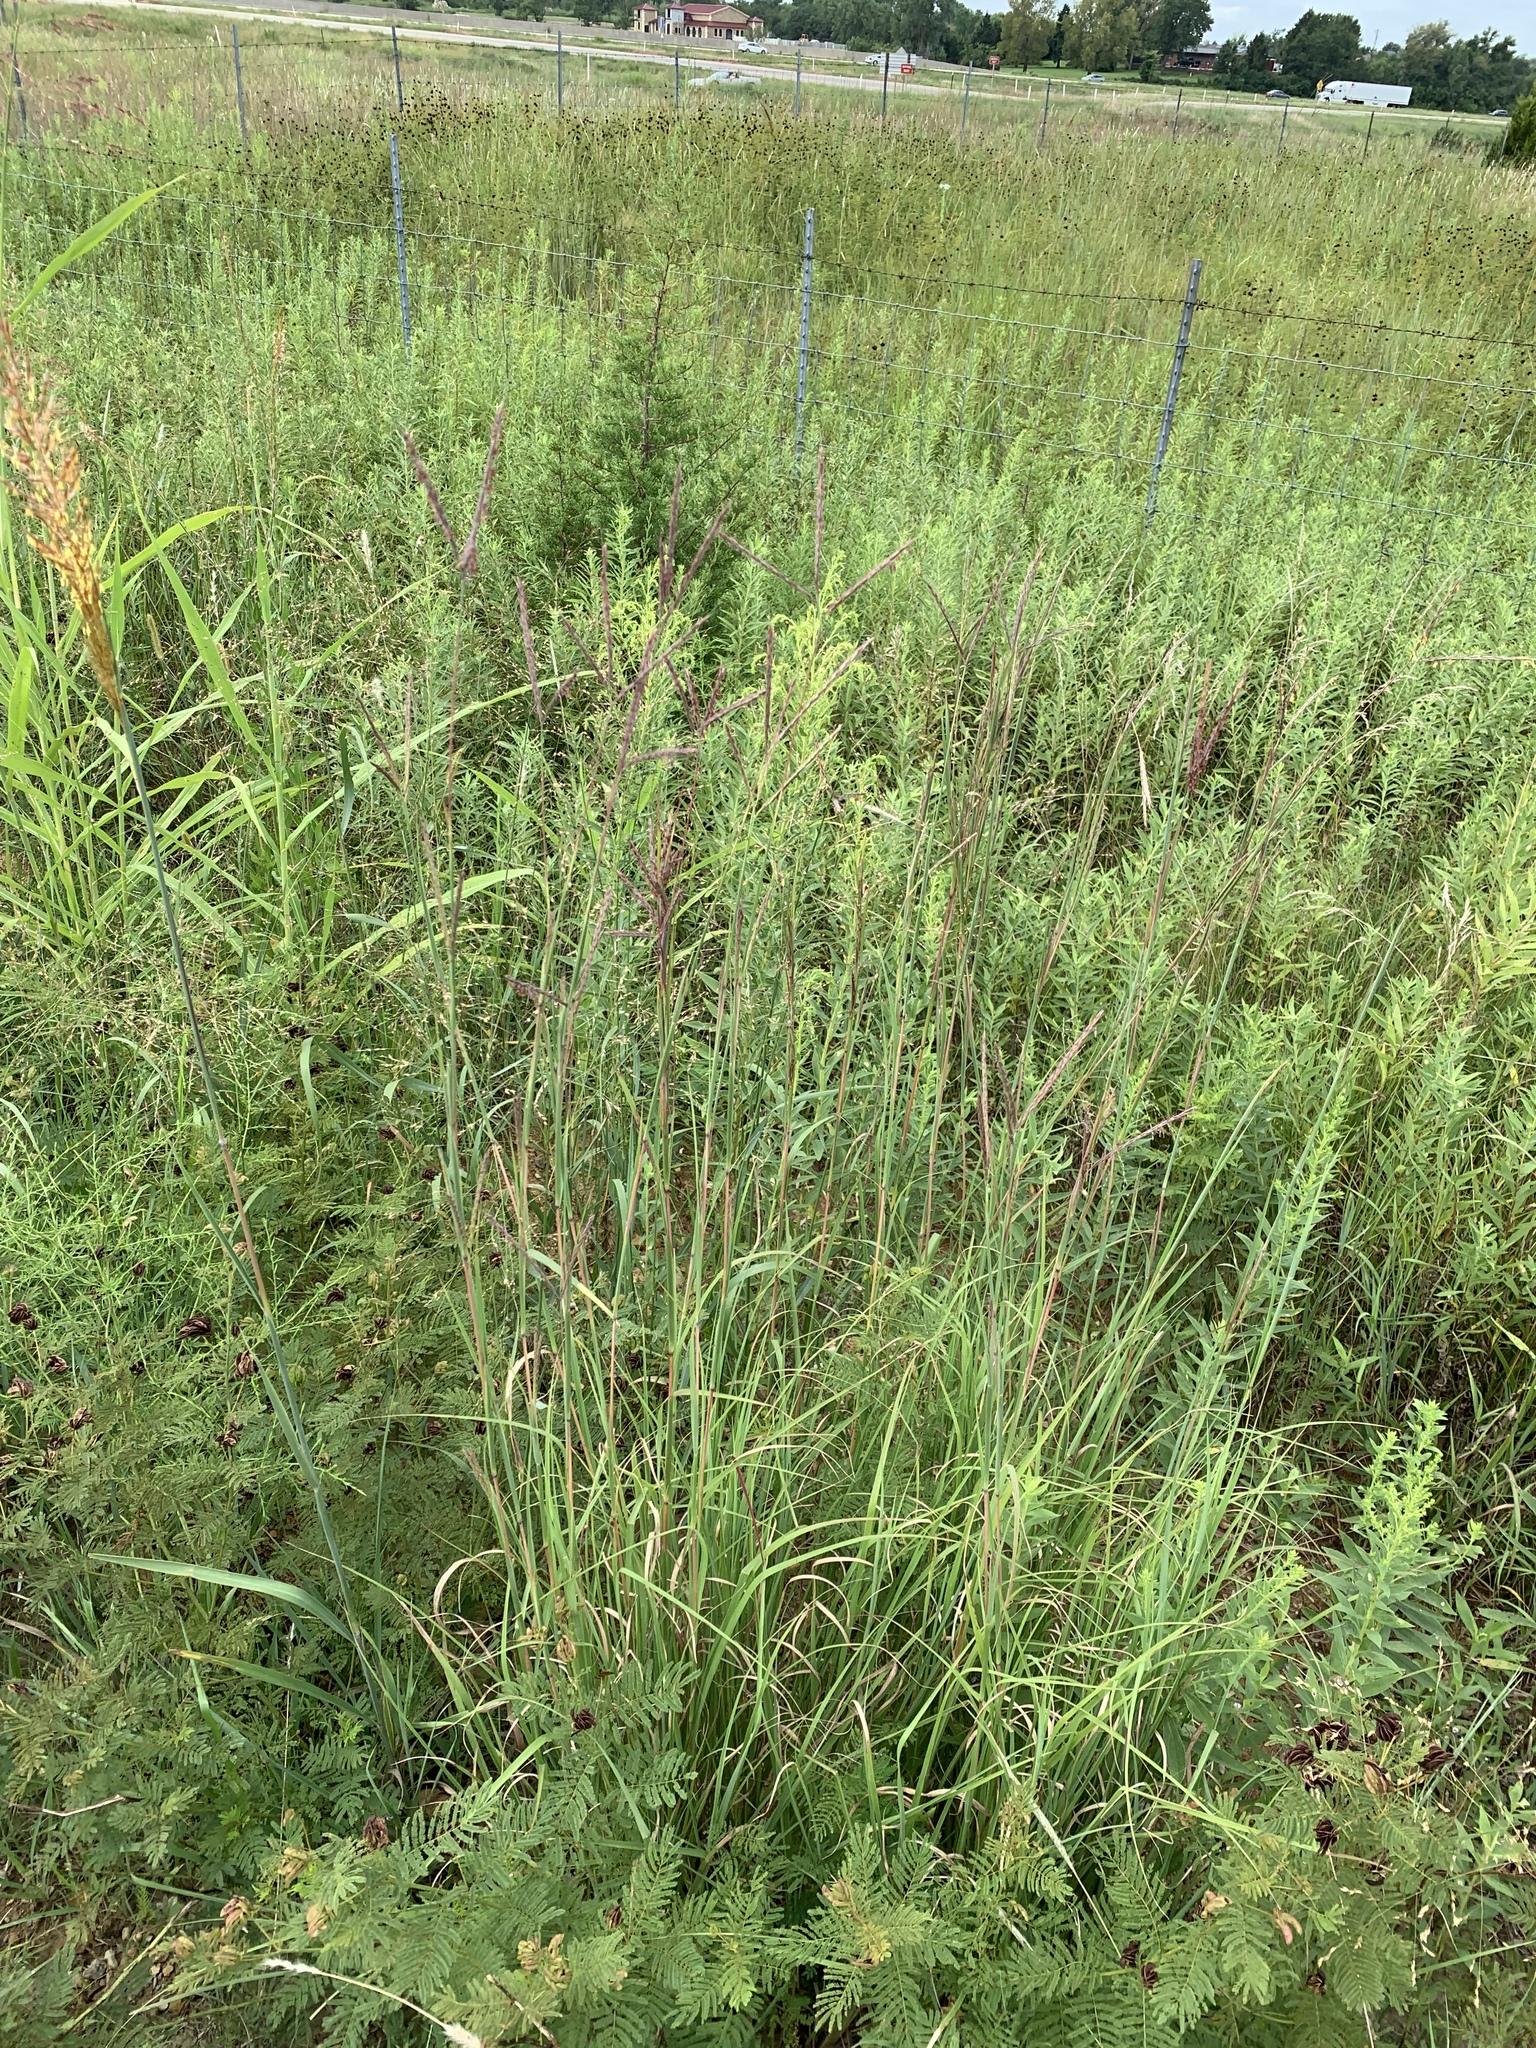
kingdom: Plantae
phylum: Tracheophyta
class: Liliopsida
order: Poales
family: Poaceae
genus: Andropogon
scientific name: Andropogon gerardi
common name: Big bluestem
